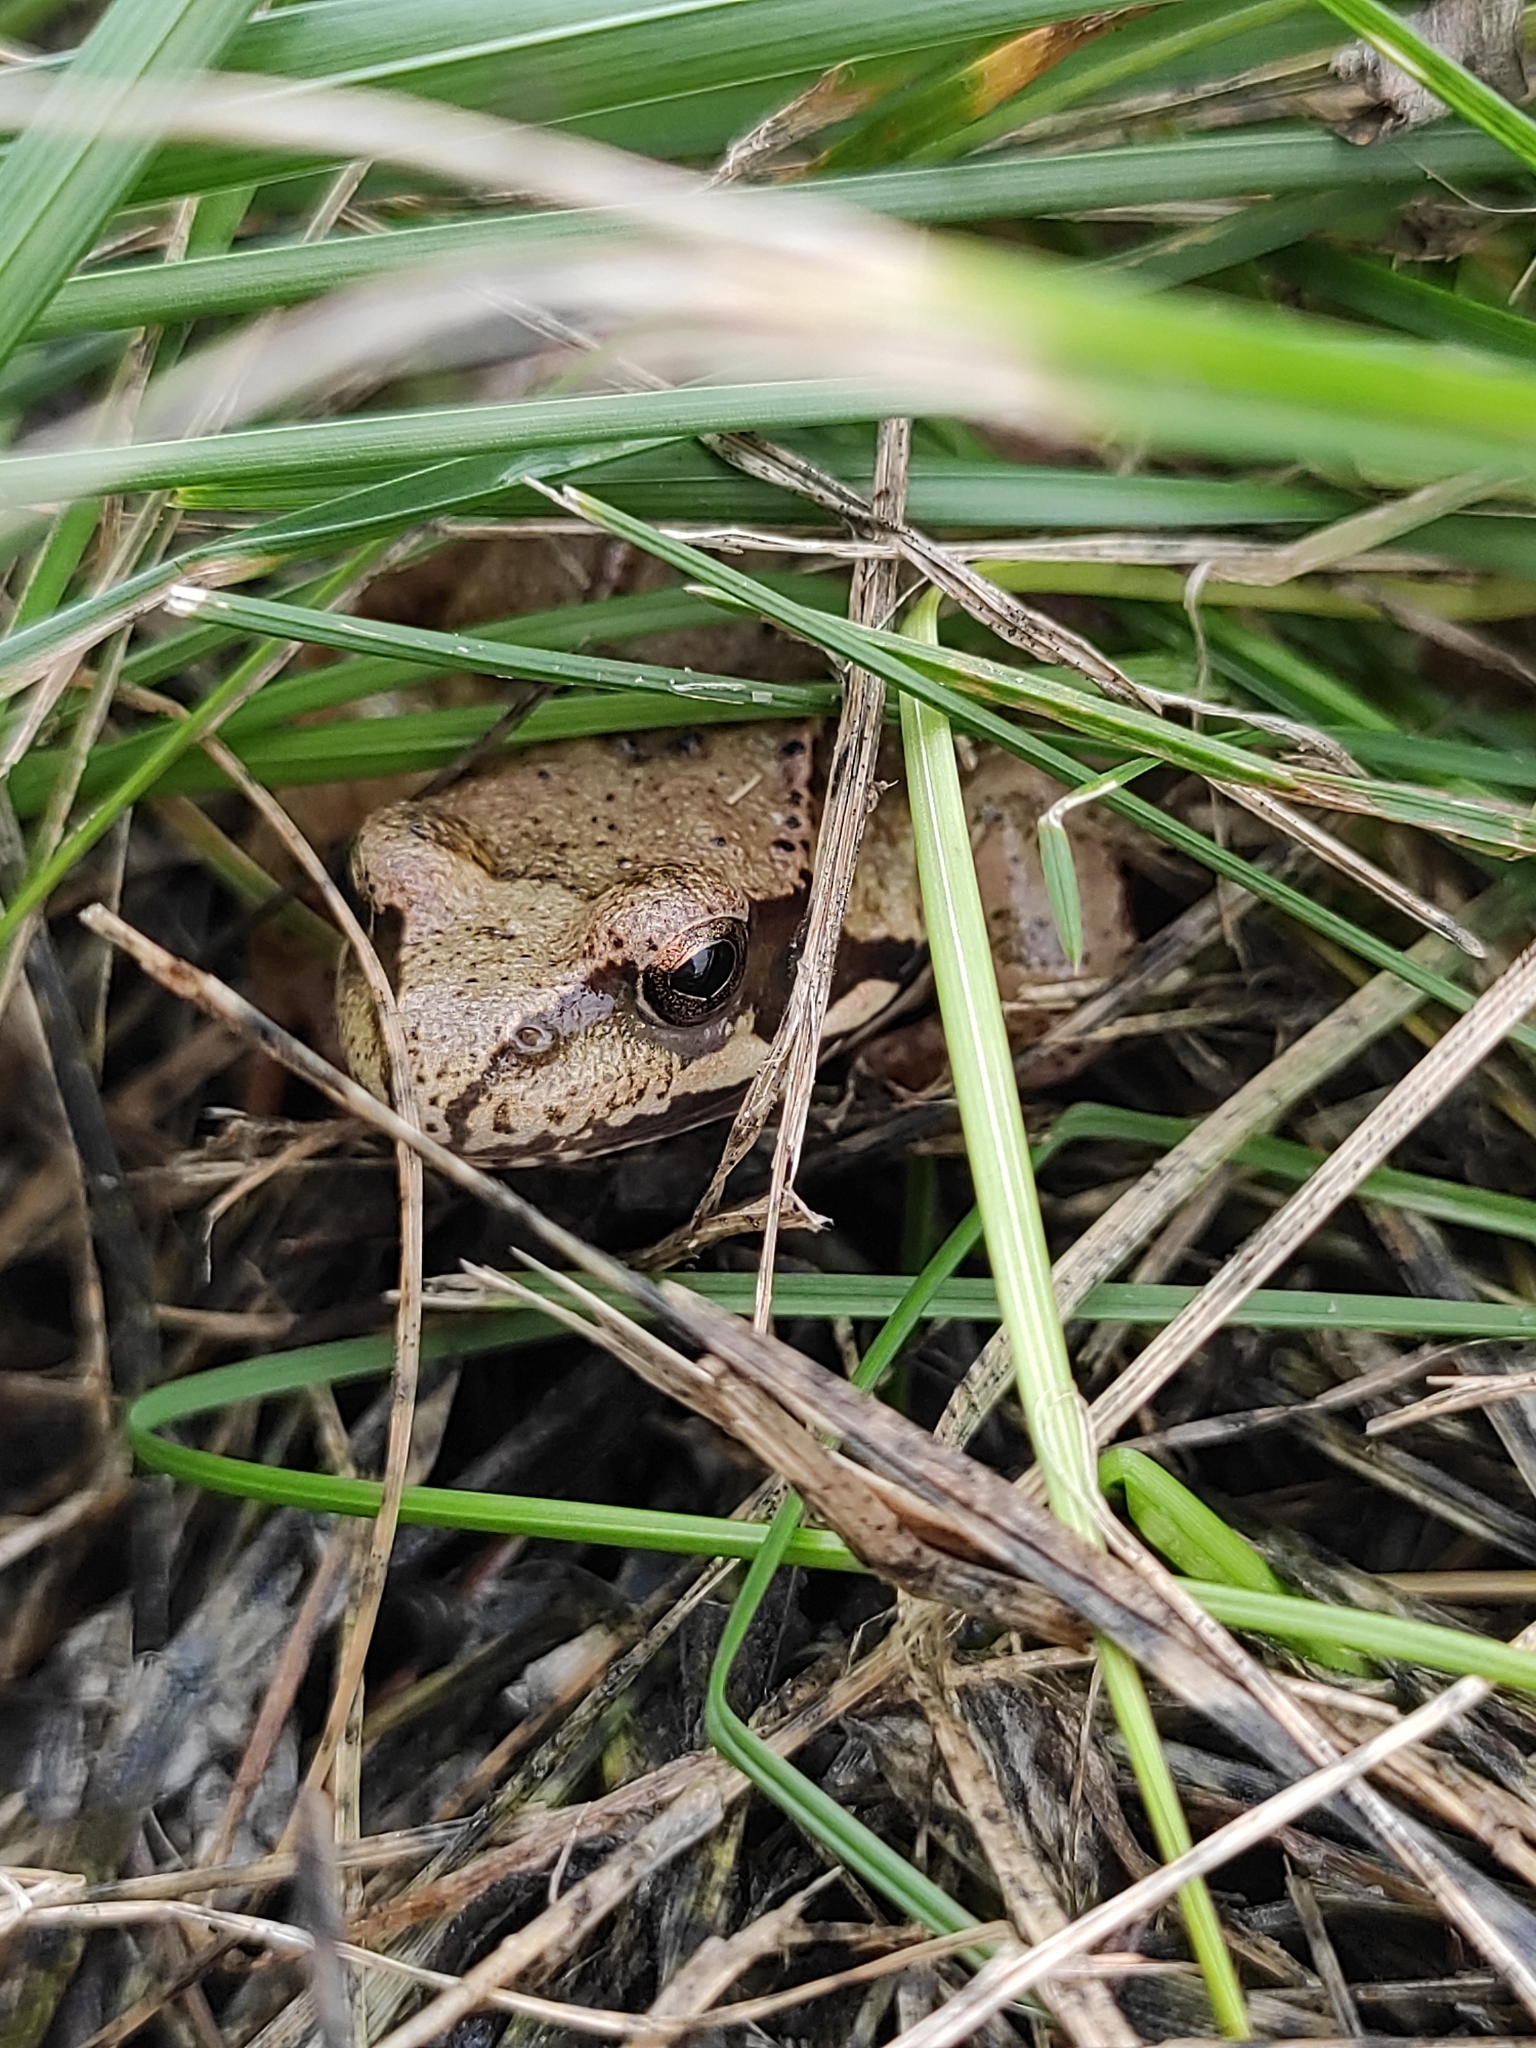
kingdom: Animalia
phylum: Chordata
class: Amphibia
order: Anura
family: Ranidae
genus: Rana
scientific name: Rana temporaria
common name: Common frog
